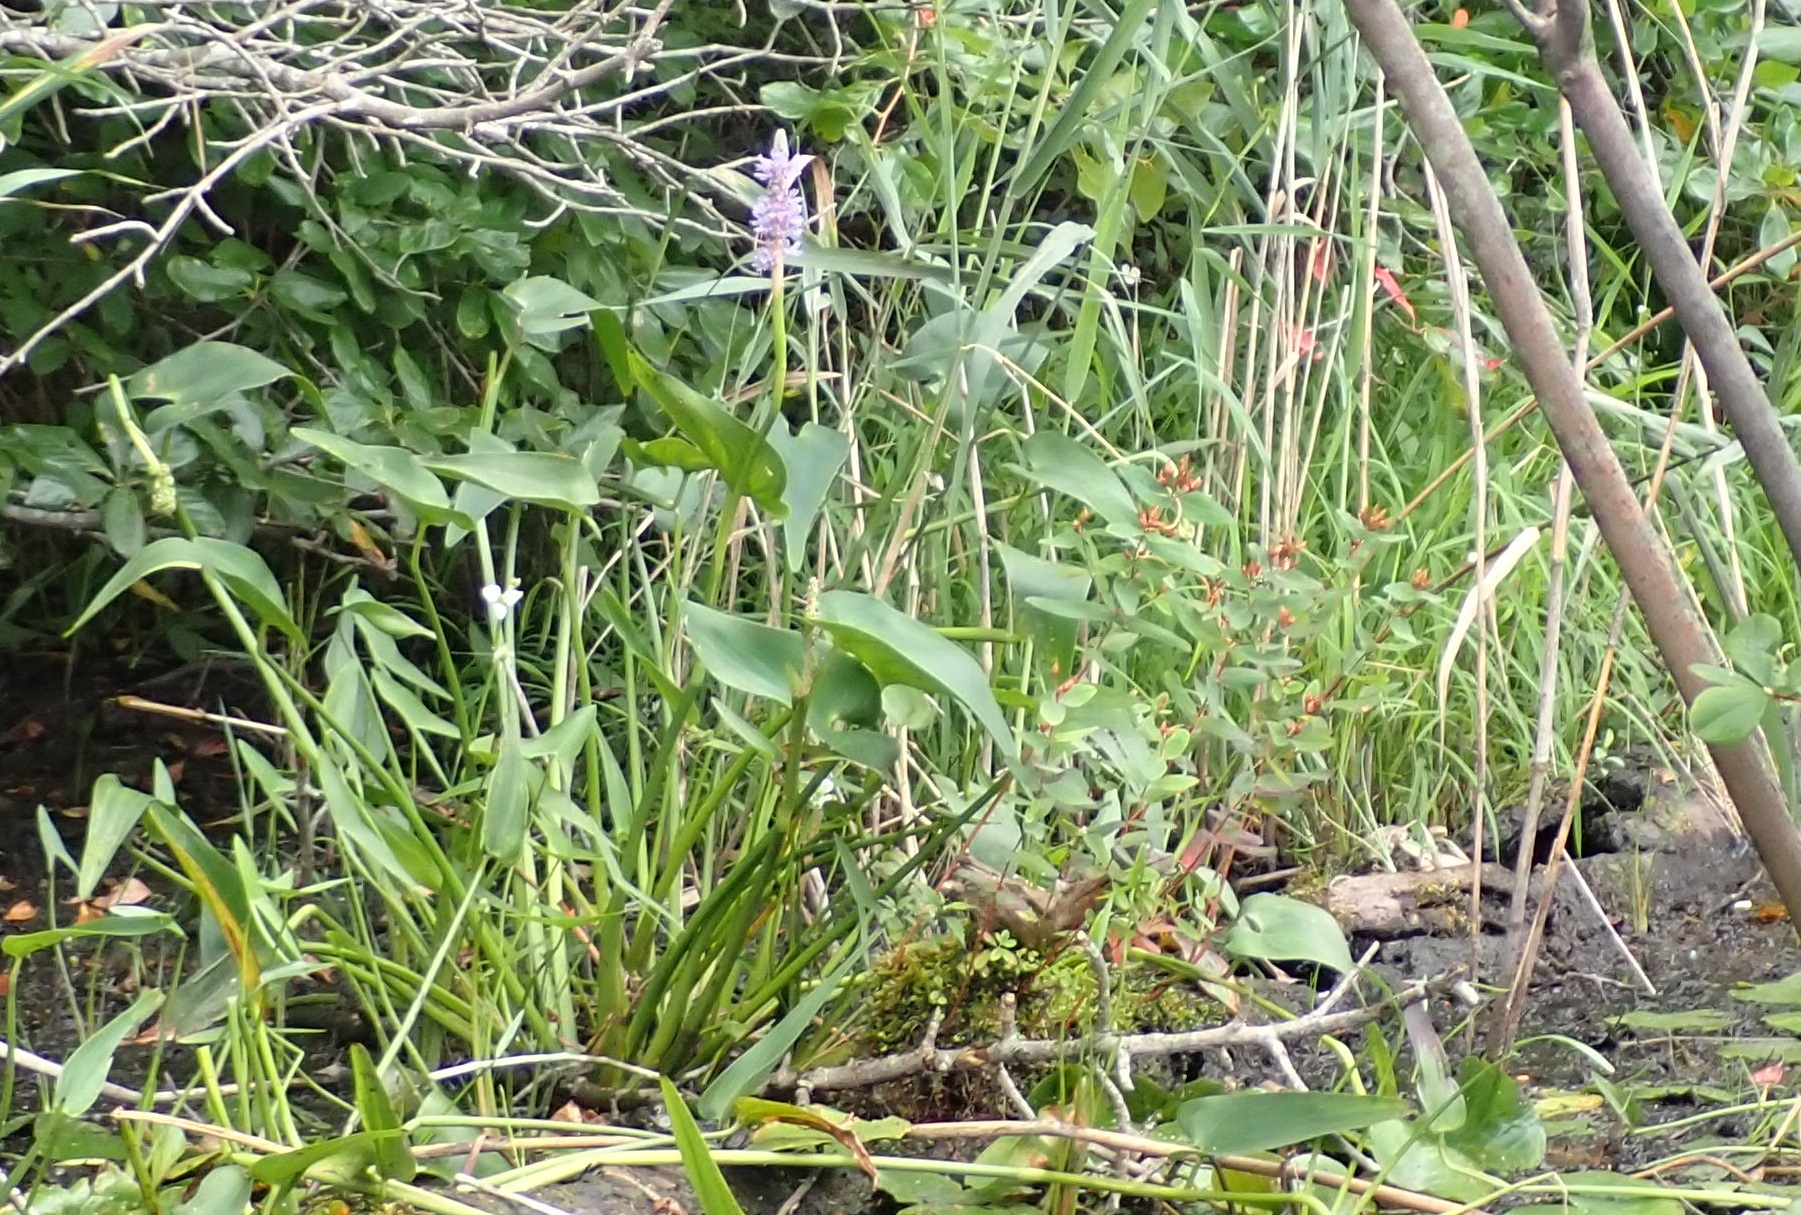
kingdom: Plantae
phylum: Tracheophyta
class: Liliopsida
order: Commelinales
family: Pontederiaceae
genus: Pontederia
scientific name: Pontederia cordata
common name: Pickerelweed
